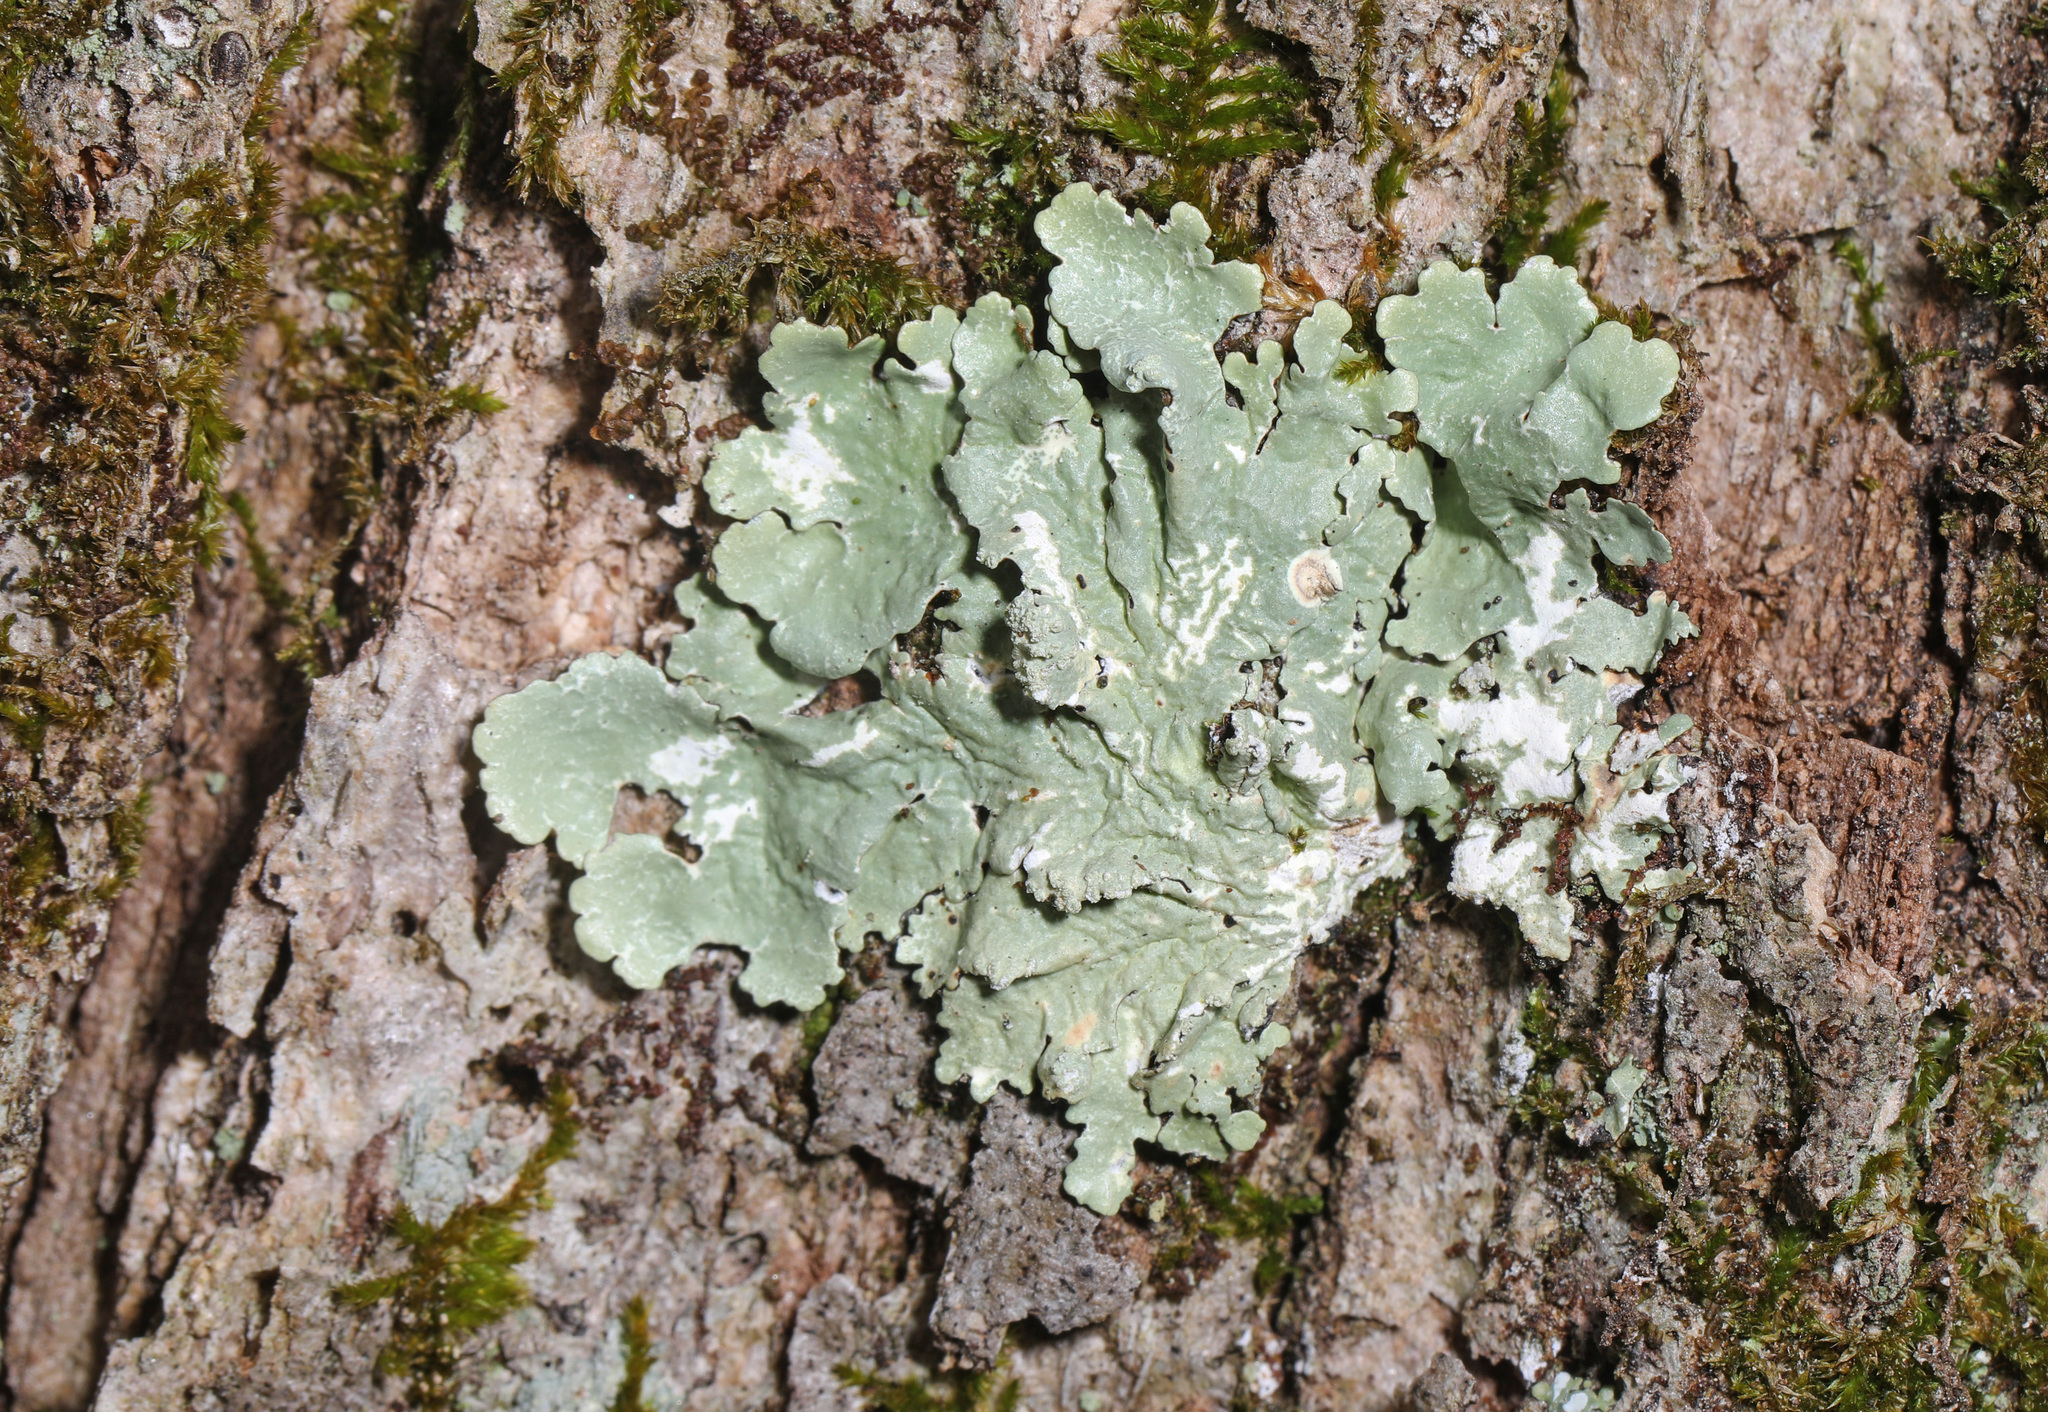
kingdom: Fungi
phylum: Ascomycota
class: Lecanoromycetes
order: Lecanorales
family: Parmeliaceae
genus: Flavoparmelia
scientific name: Flavoparmelia caperata
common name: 40-mile per hour lichen
